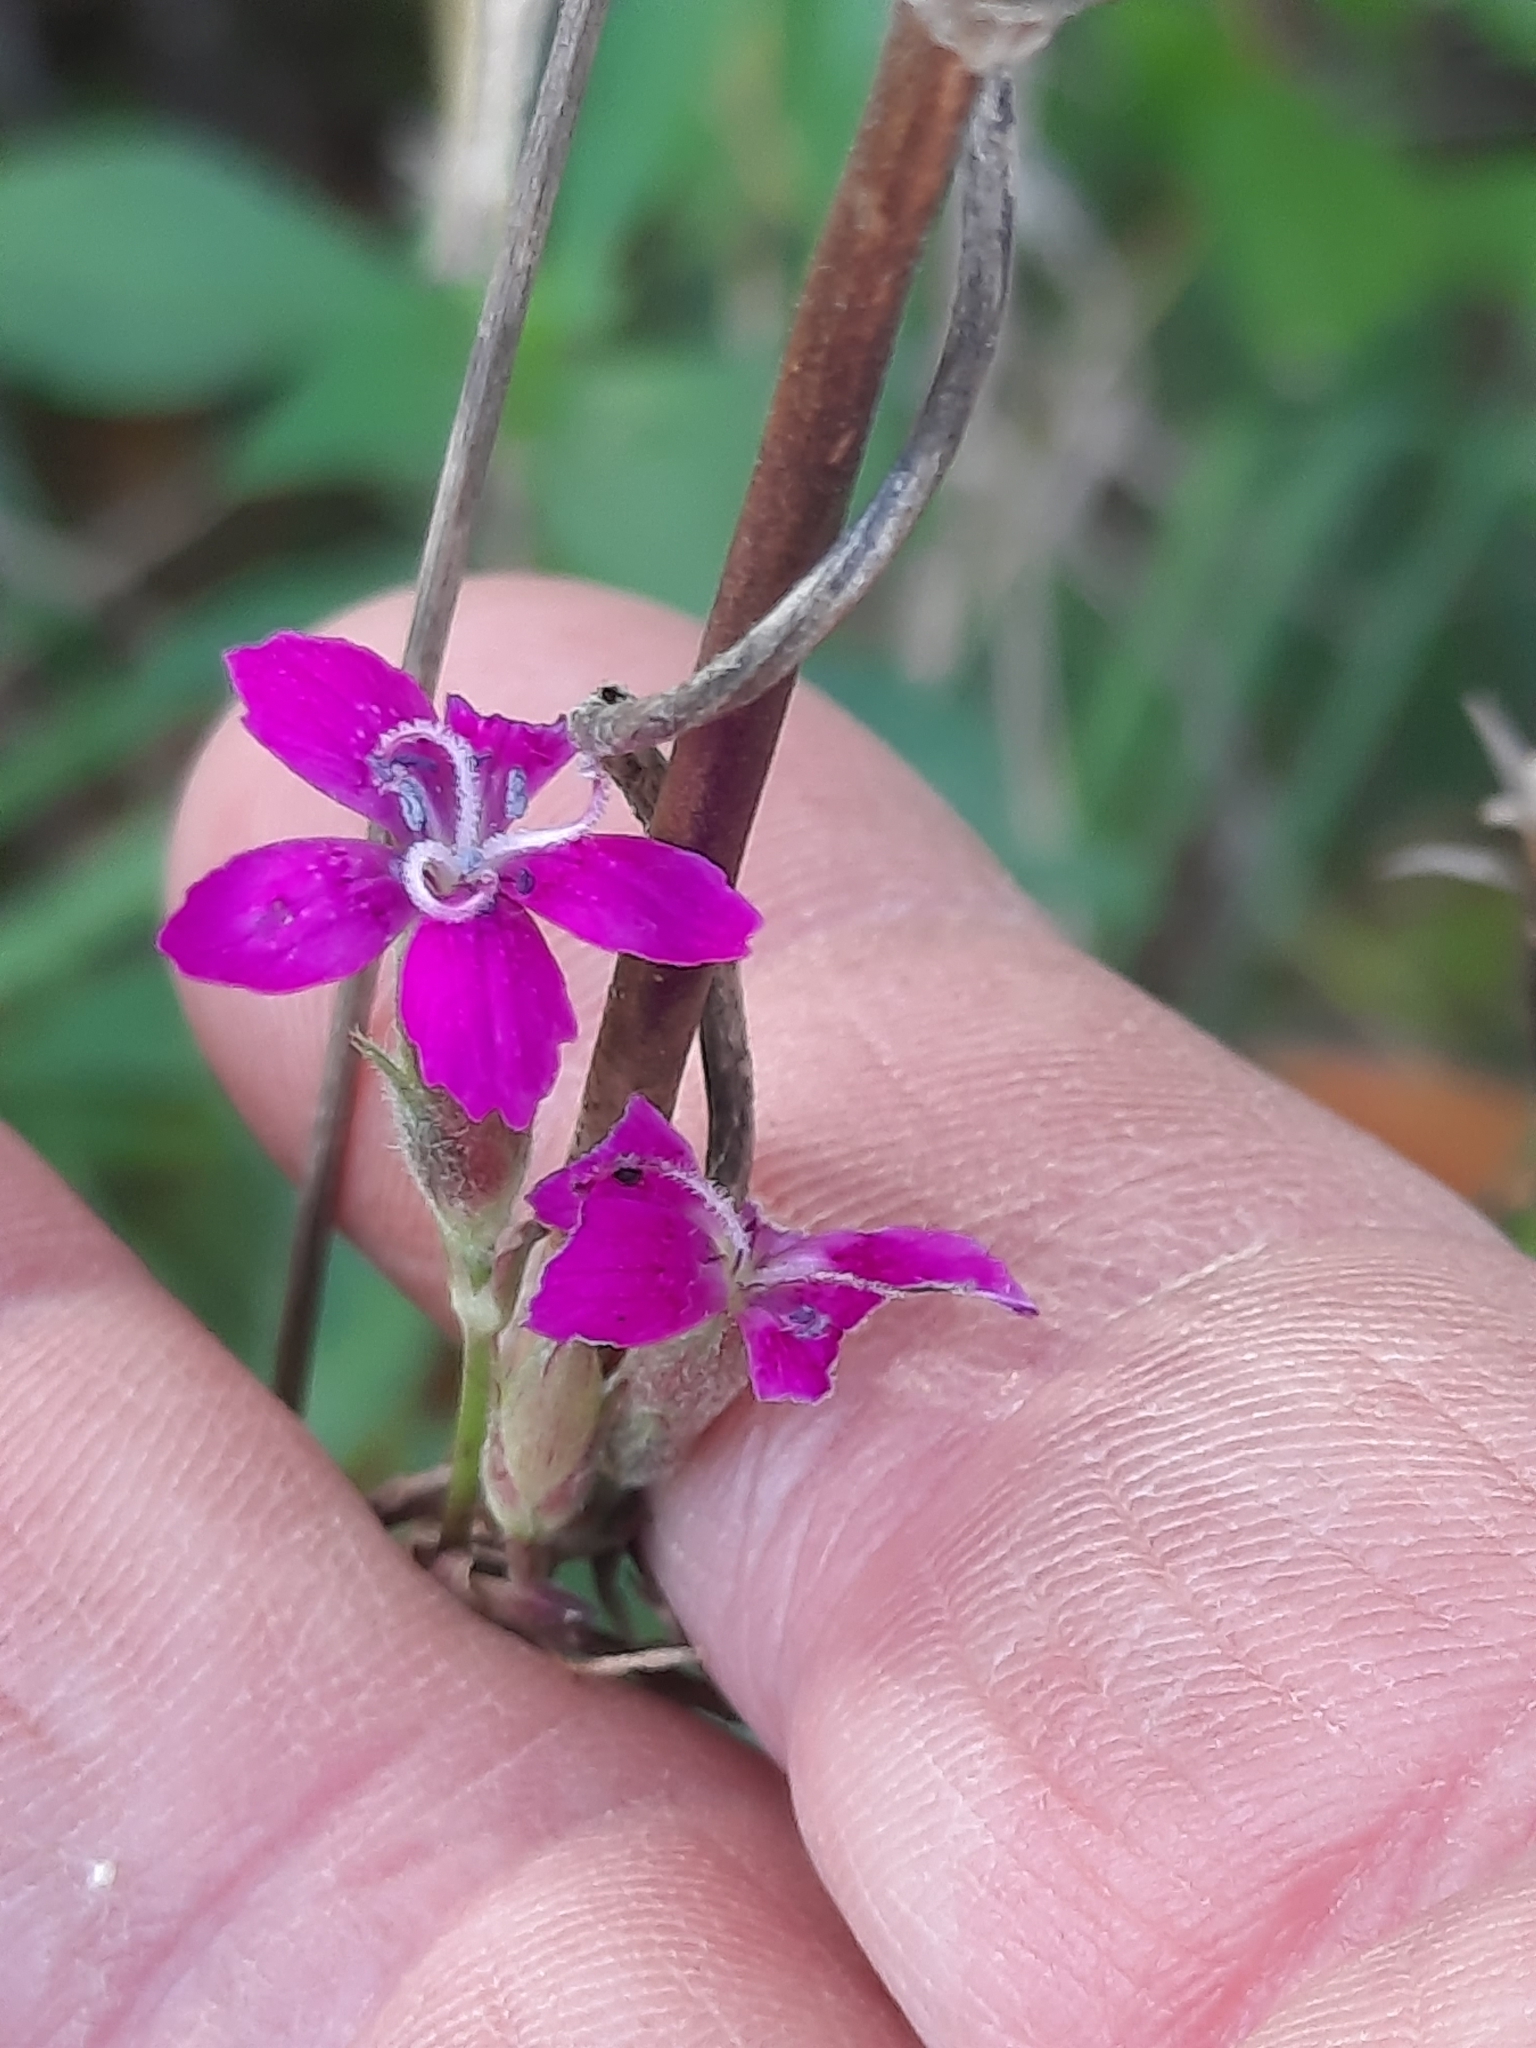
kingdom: Plantae
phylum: Tracheophyta
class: Magnoliopsida
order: Caryophyllales
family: Caryophyllaceae
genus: Dianthus
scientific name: Dianthus armeria
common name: Deptford pink
